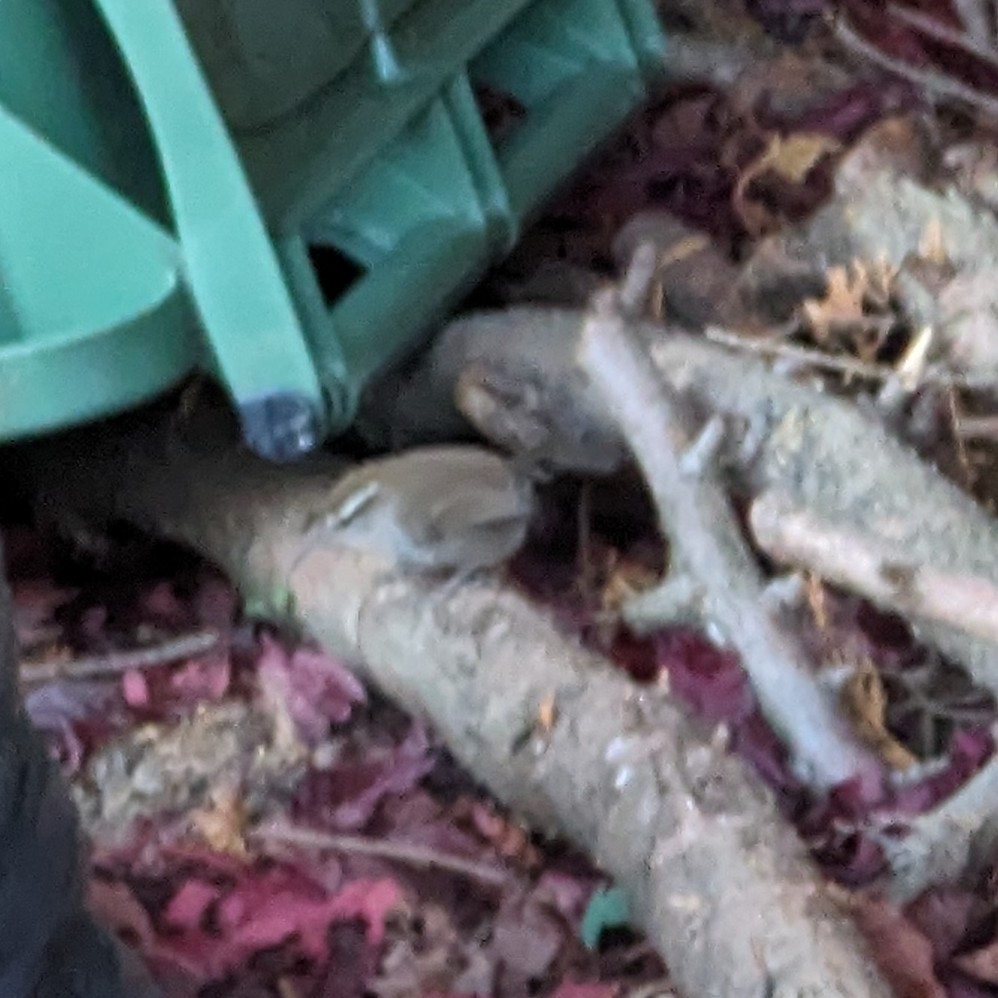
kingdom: Animalia
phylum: Chordata
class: Aves
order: Passeriformes
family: Troglodytidae
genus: Thryomanes
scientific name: Thryomanes bewickii
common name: Bewick's wren
